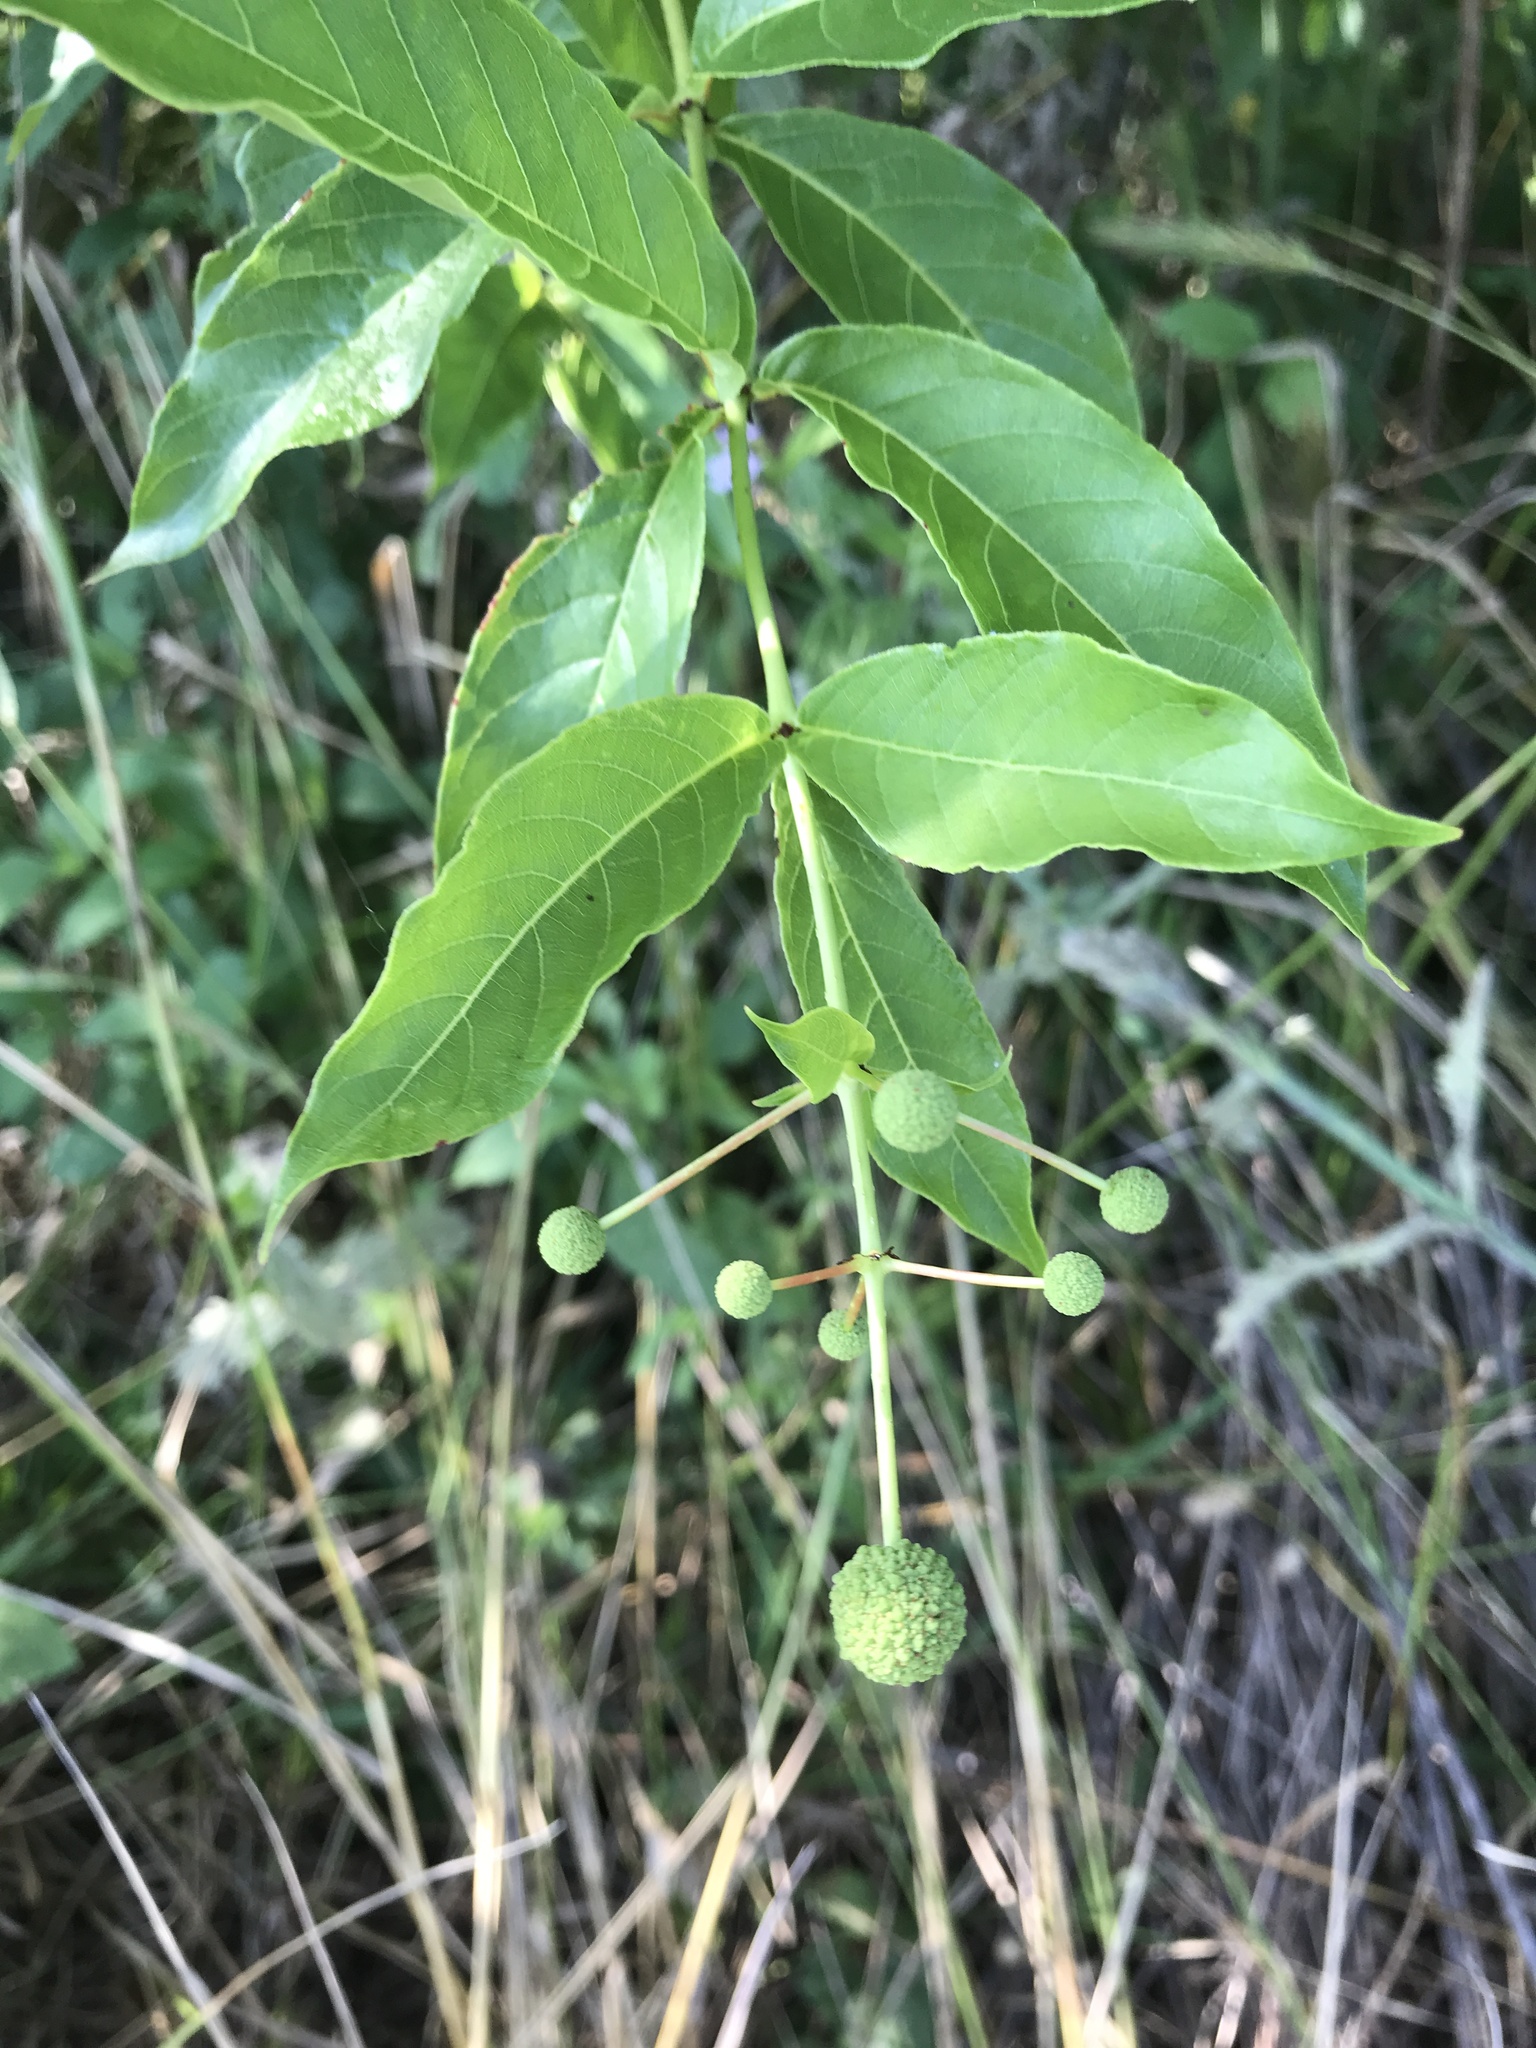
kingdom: Plantae
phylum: Tracheophyta
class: Magnoliopsida
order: Gentianales
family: Rubiaceae
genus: Cephalanthus
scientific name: Cephalanthus occidentalis
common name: Button-willow
